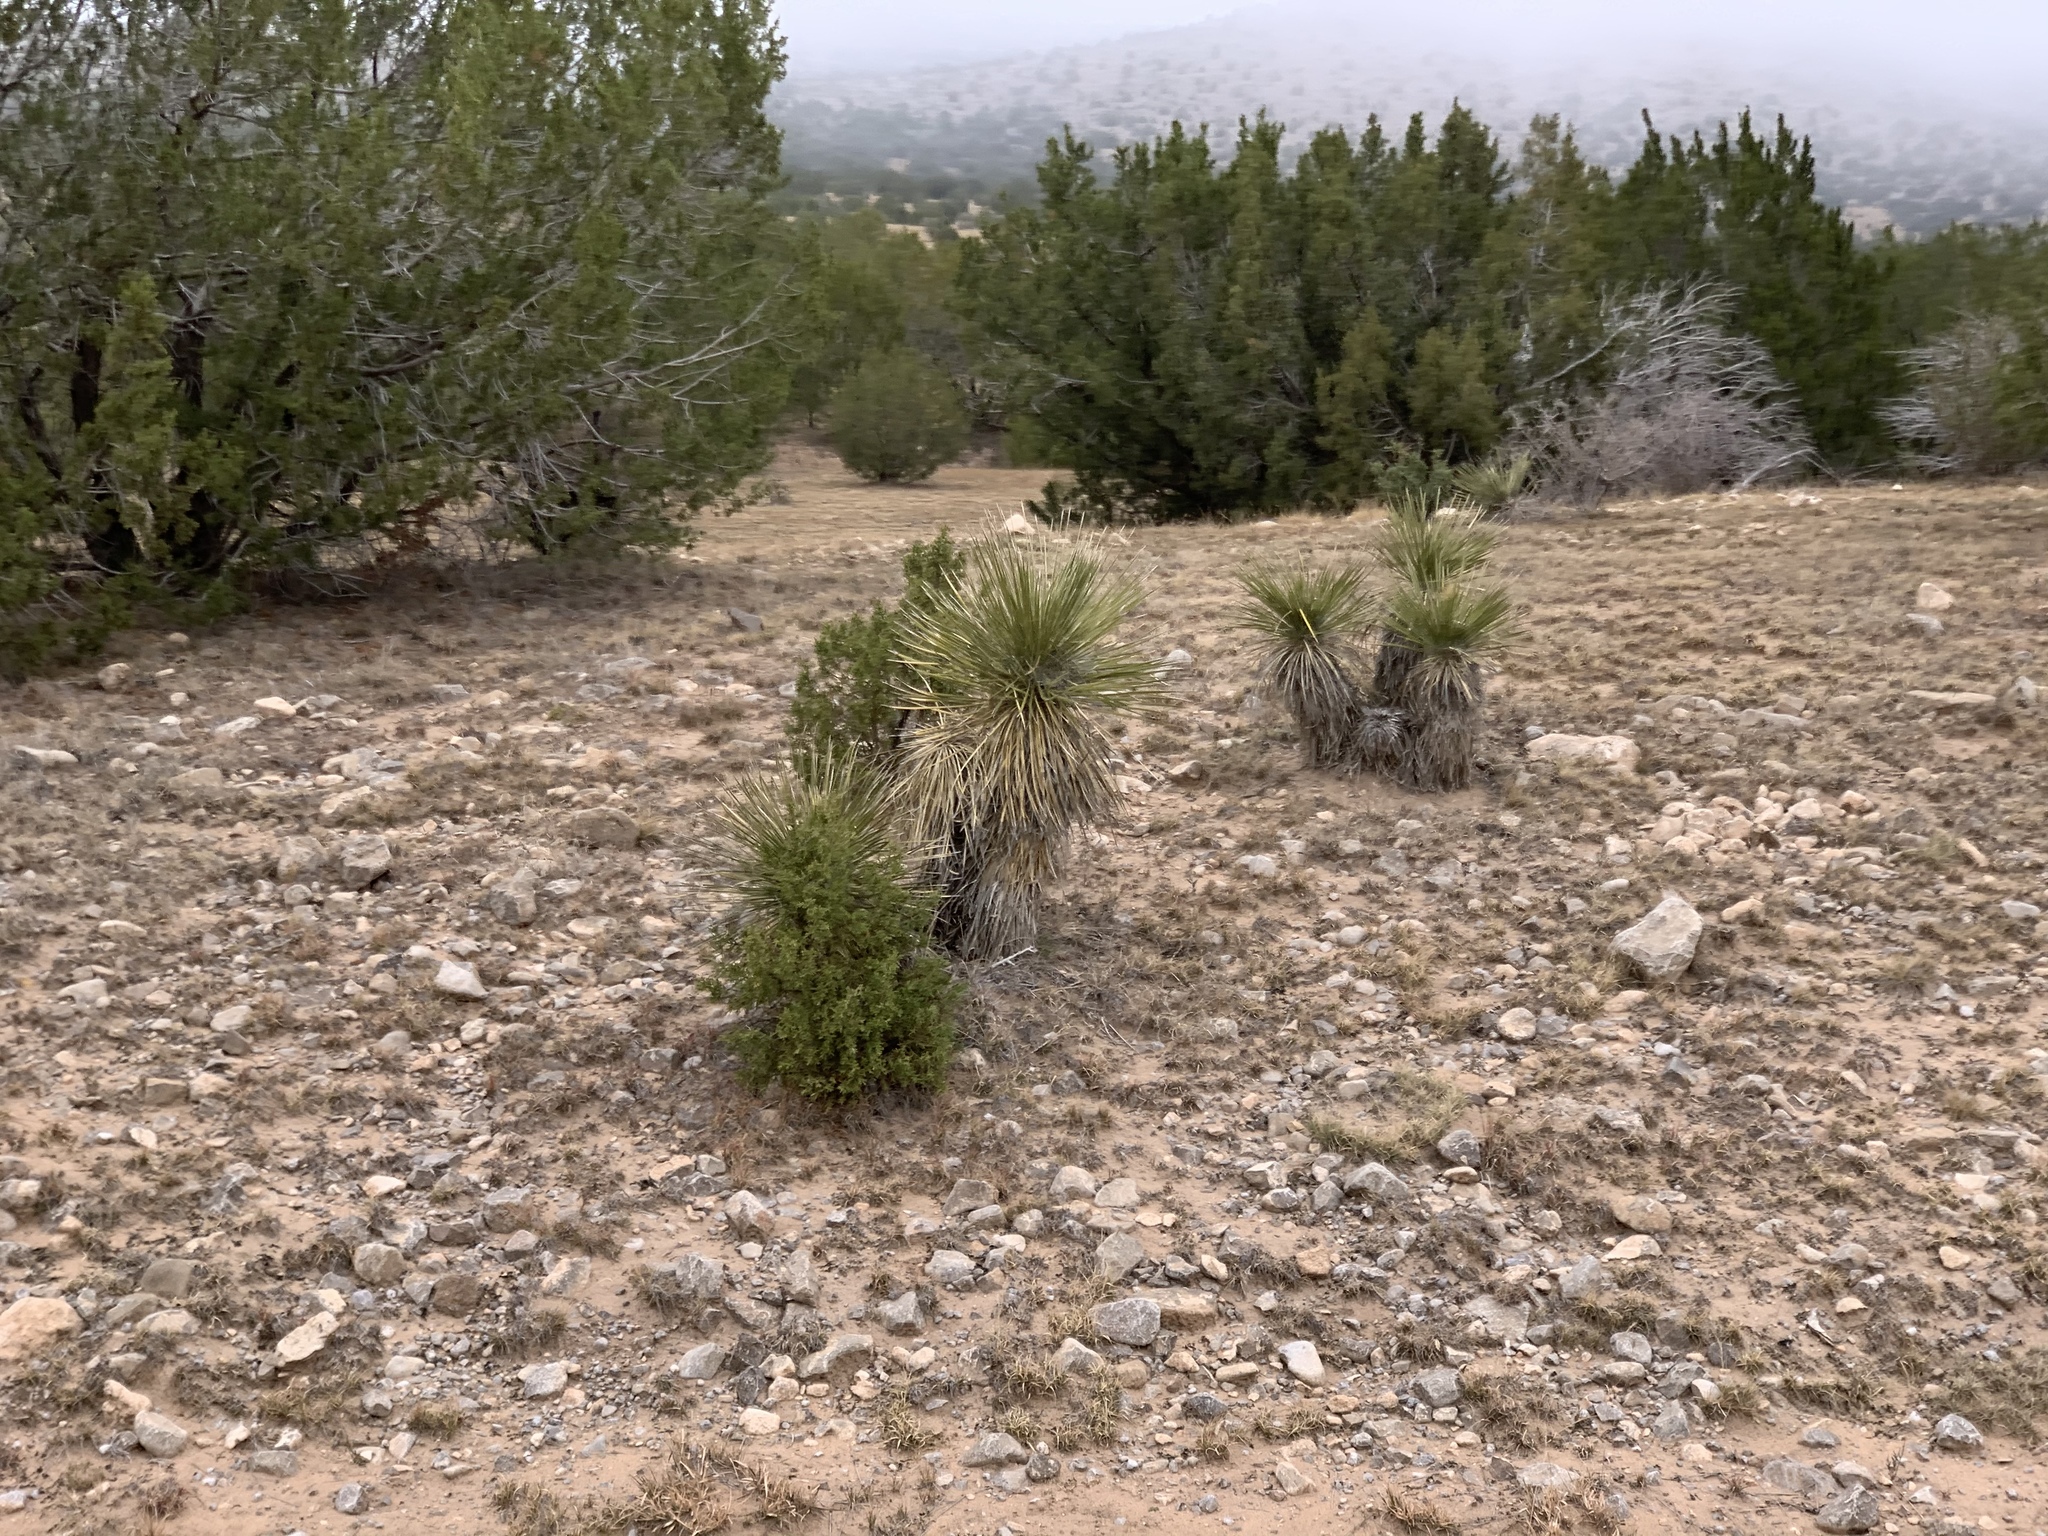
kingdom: Plantae
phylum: Tracheophyta
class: Liliopsida
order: Asparagales
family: Asparagaceae
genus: Yucca
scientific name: Yucca elata
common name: Palmella
